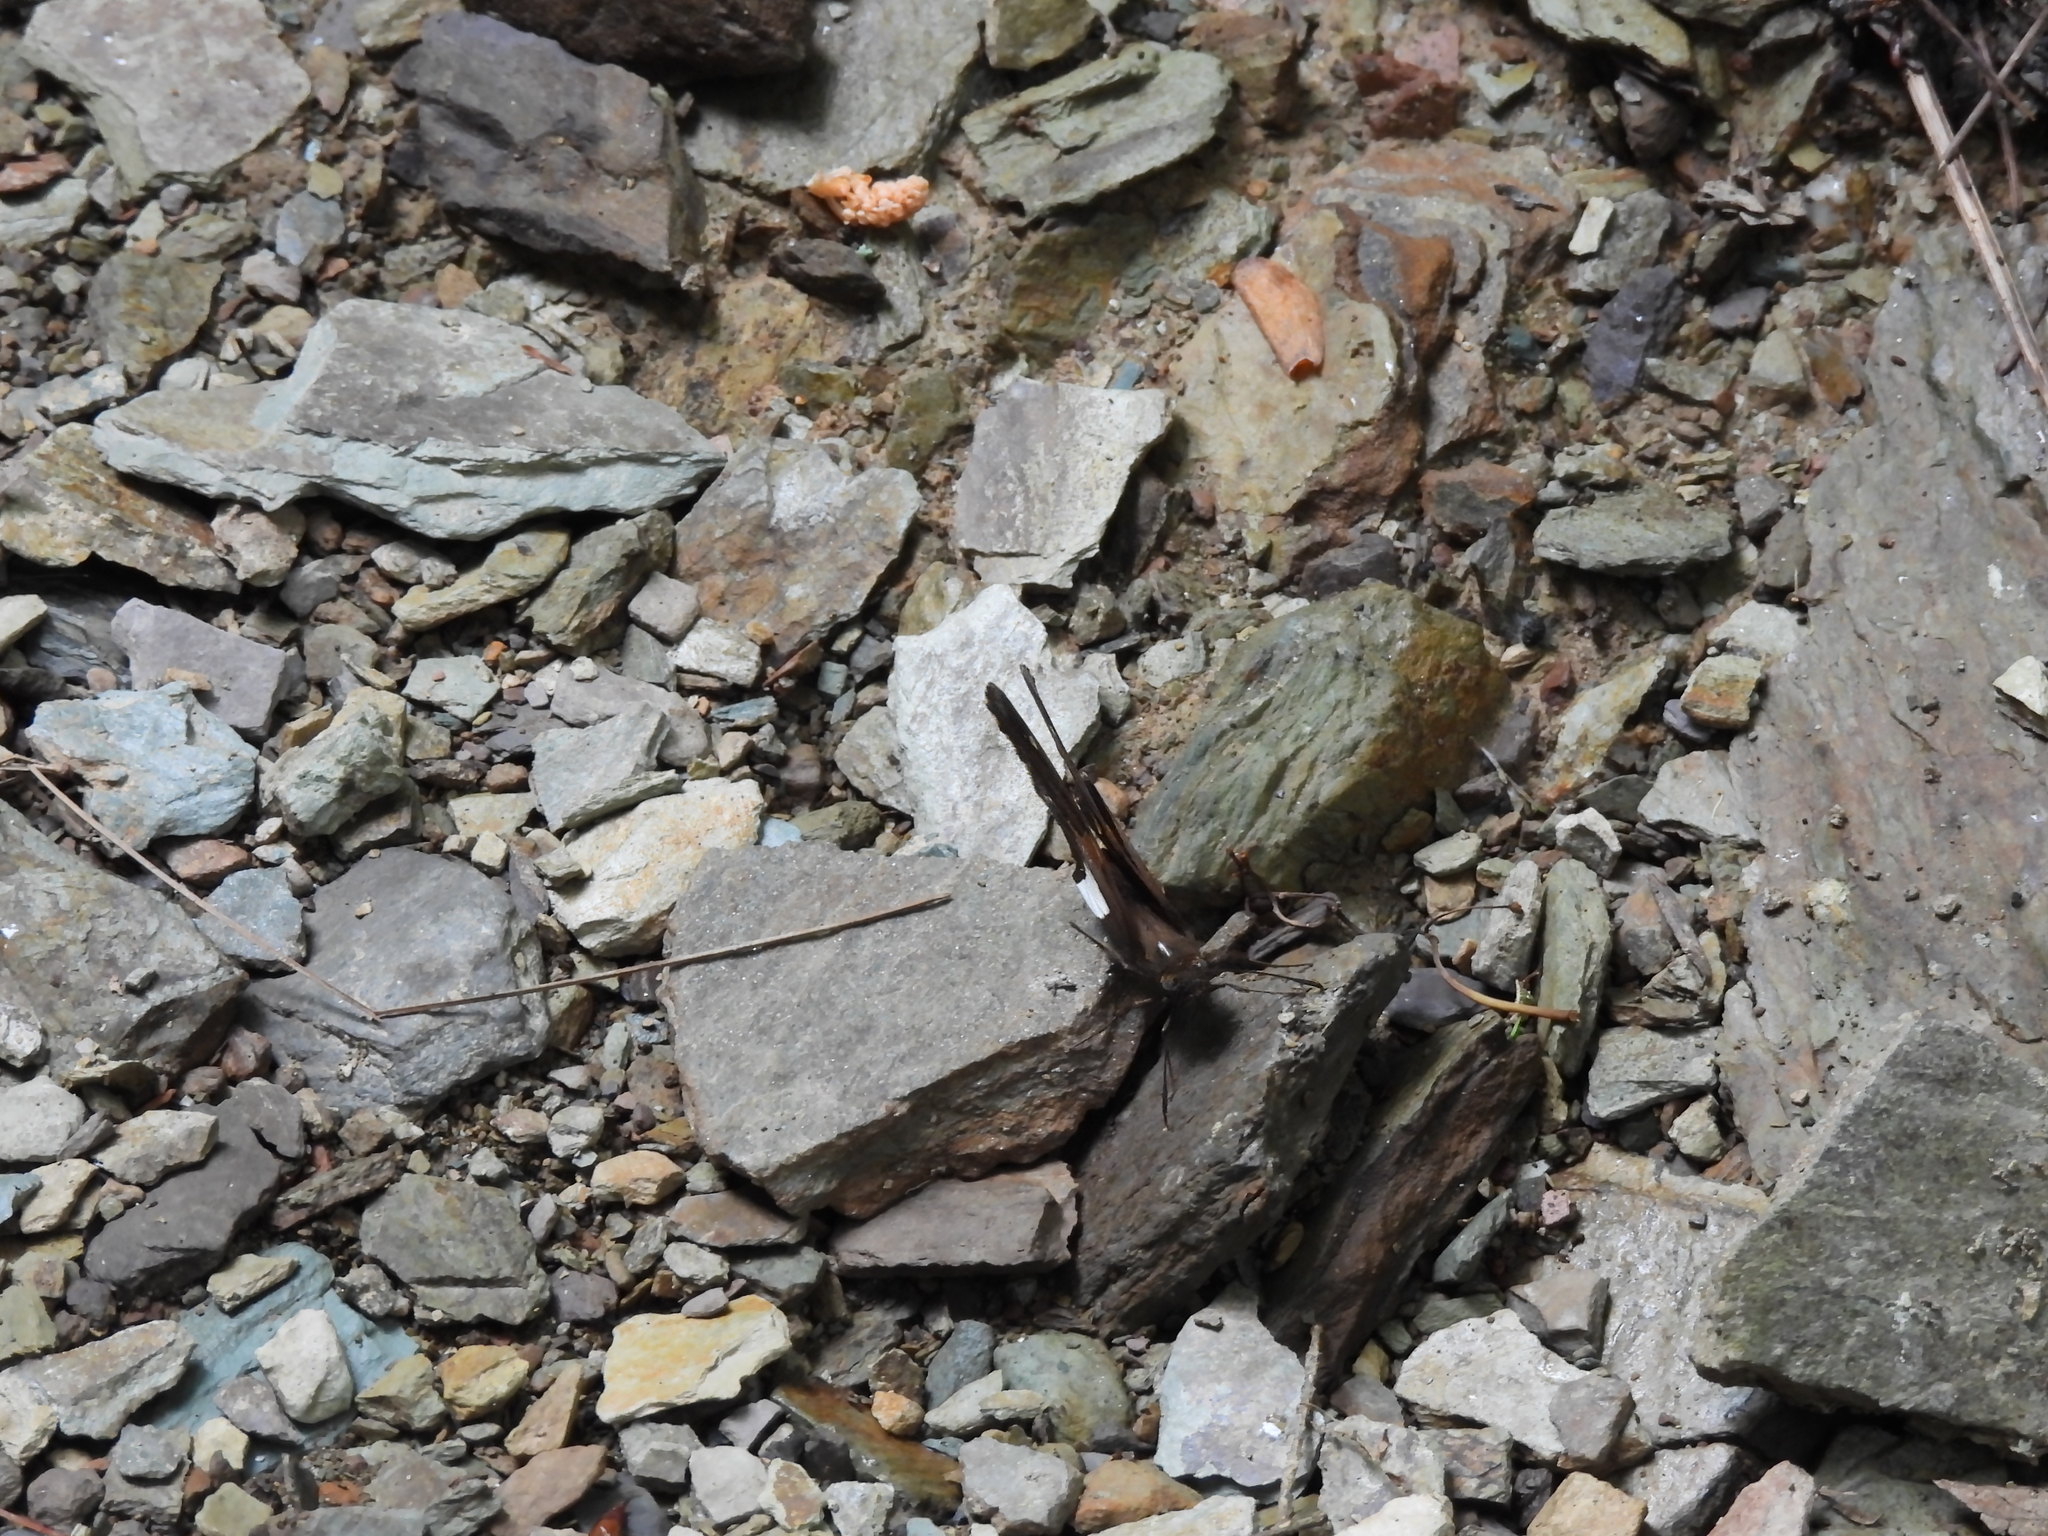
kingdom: Animalia
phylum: Arthropoda
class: Insecta
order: Lepidoptera
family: Hesperiidae
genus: Epargyreus
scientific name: Epargyreus clarus
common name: Silver-spotted skipper
